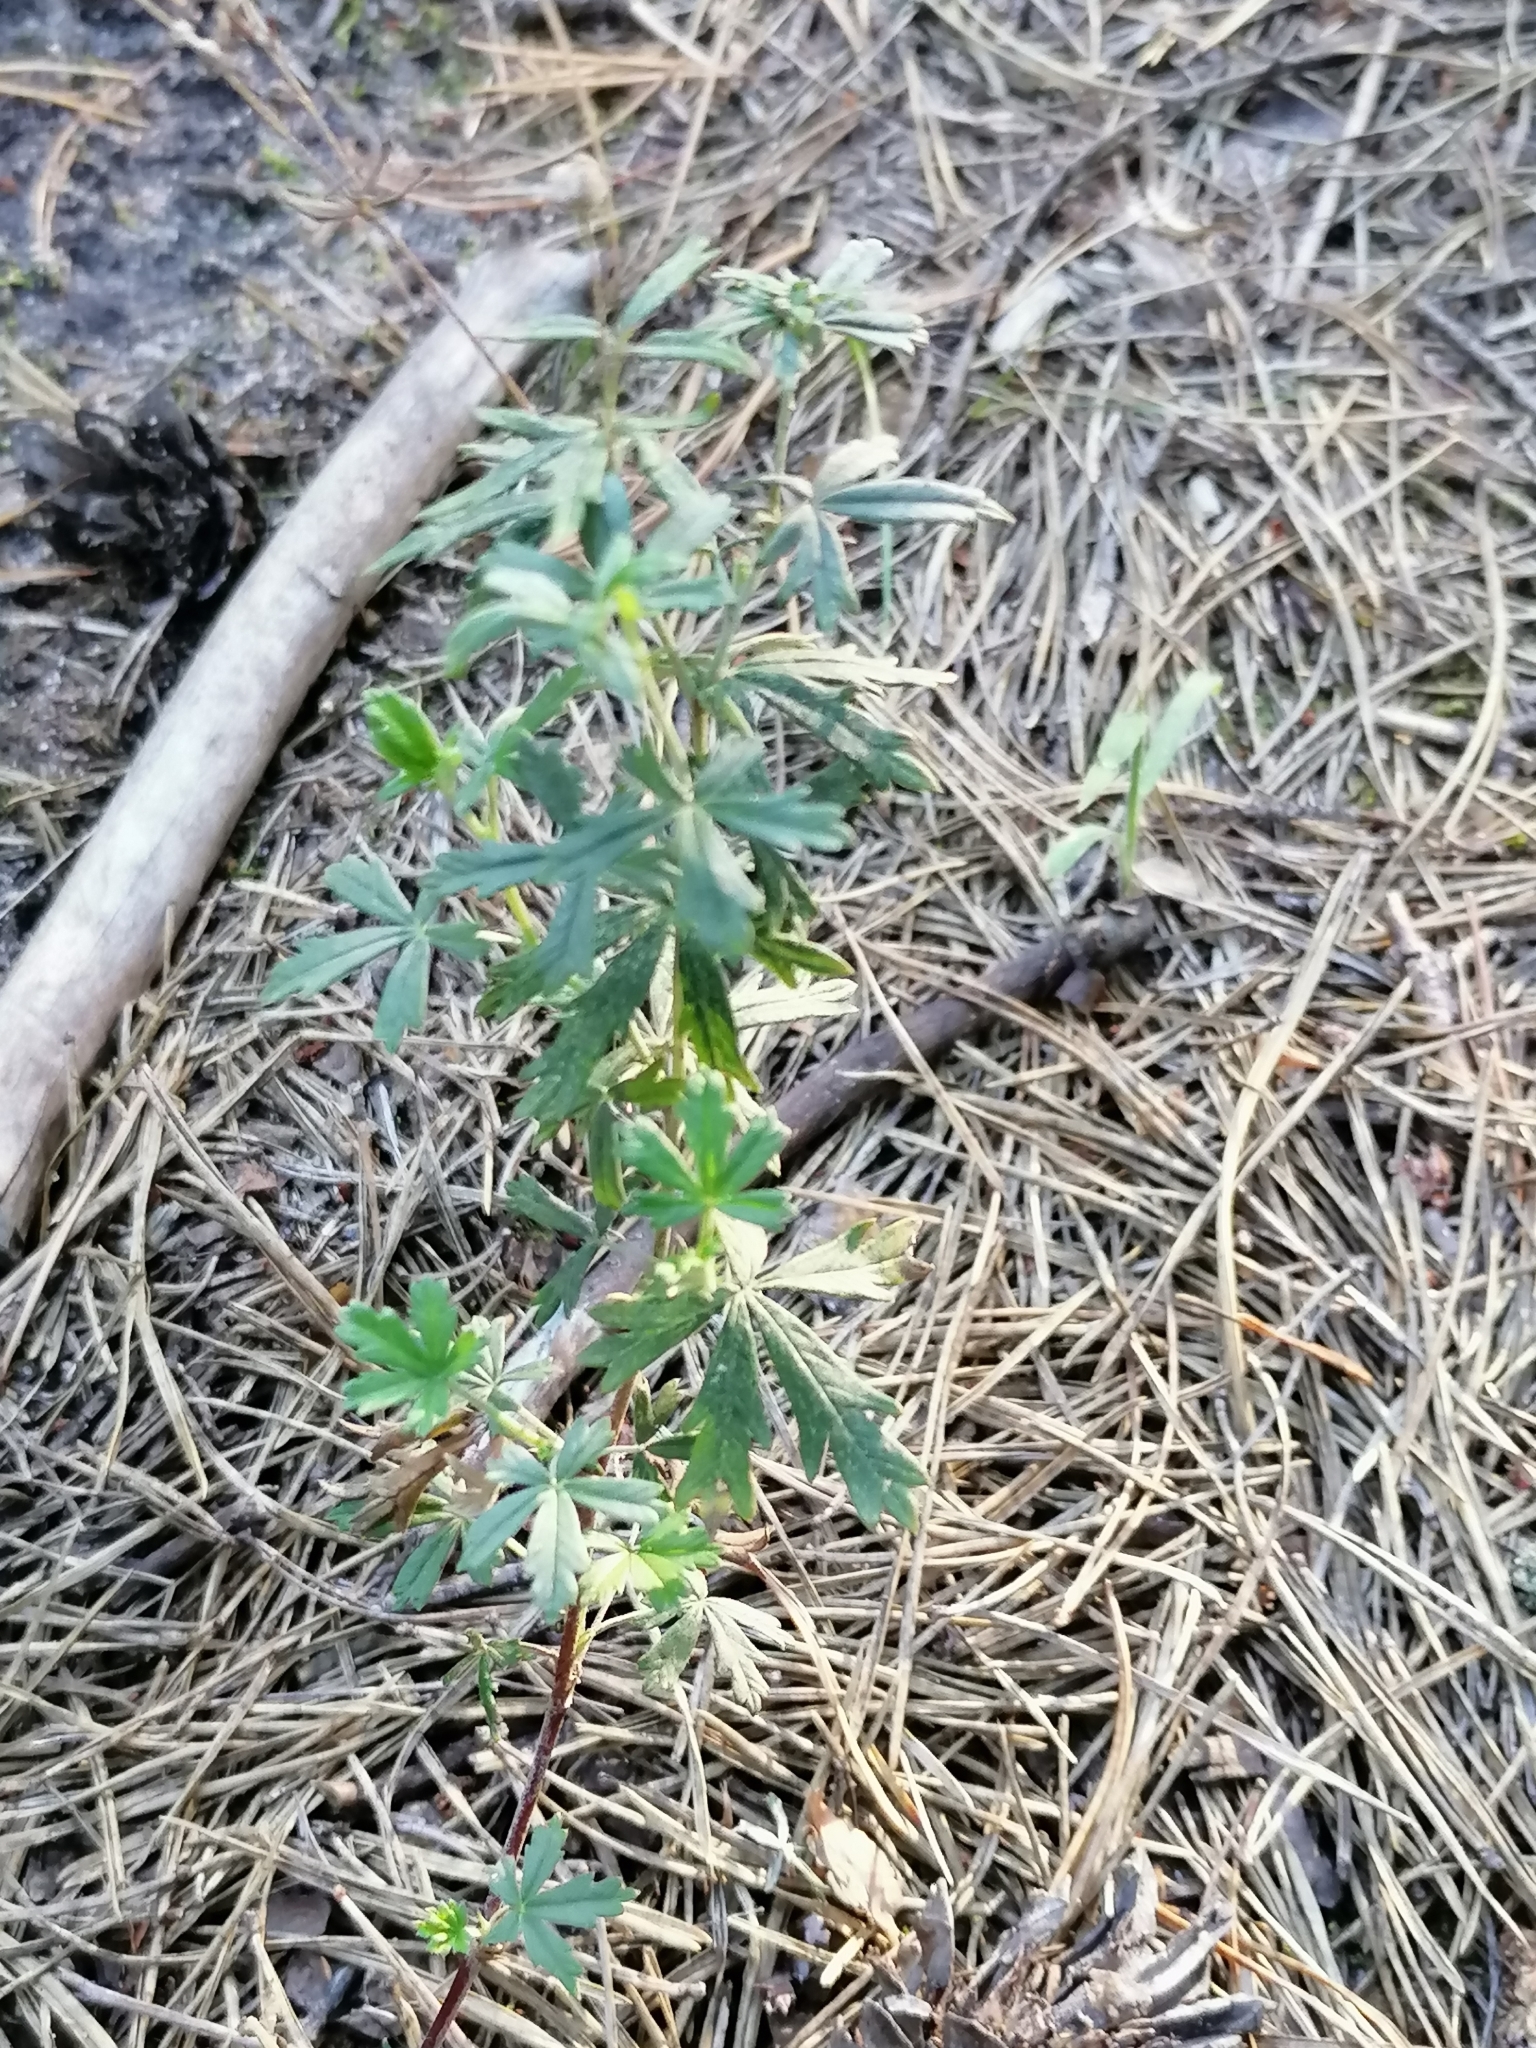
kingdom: Plantae
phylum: Tracheophyta
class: Magnoliopsida
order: Rosales
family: Rosaceae
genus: Potentilla
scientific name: Potentilla erecta
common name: Tormentil
